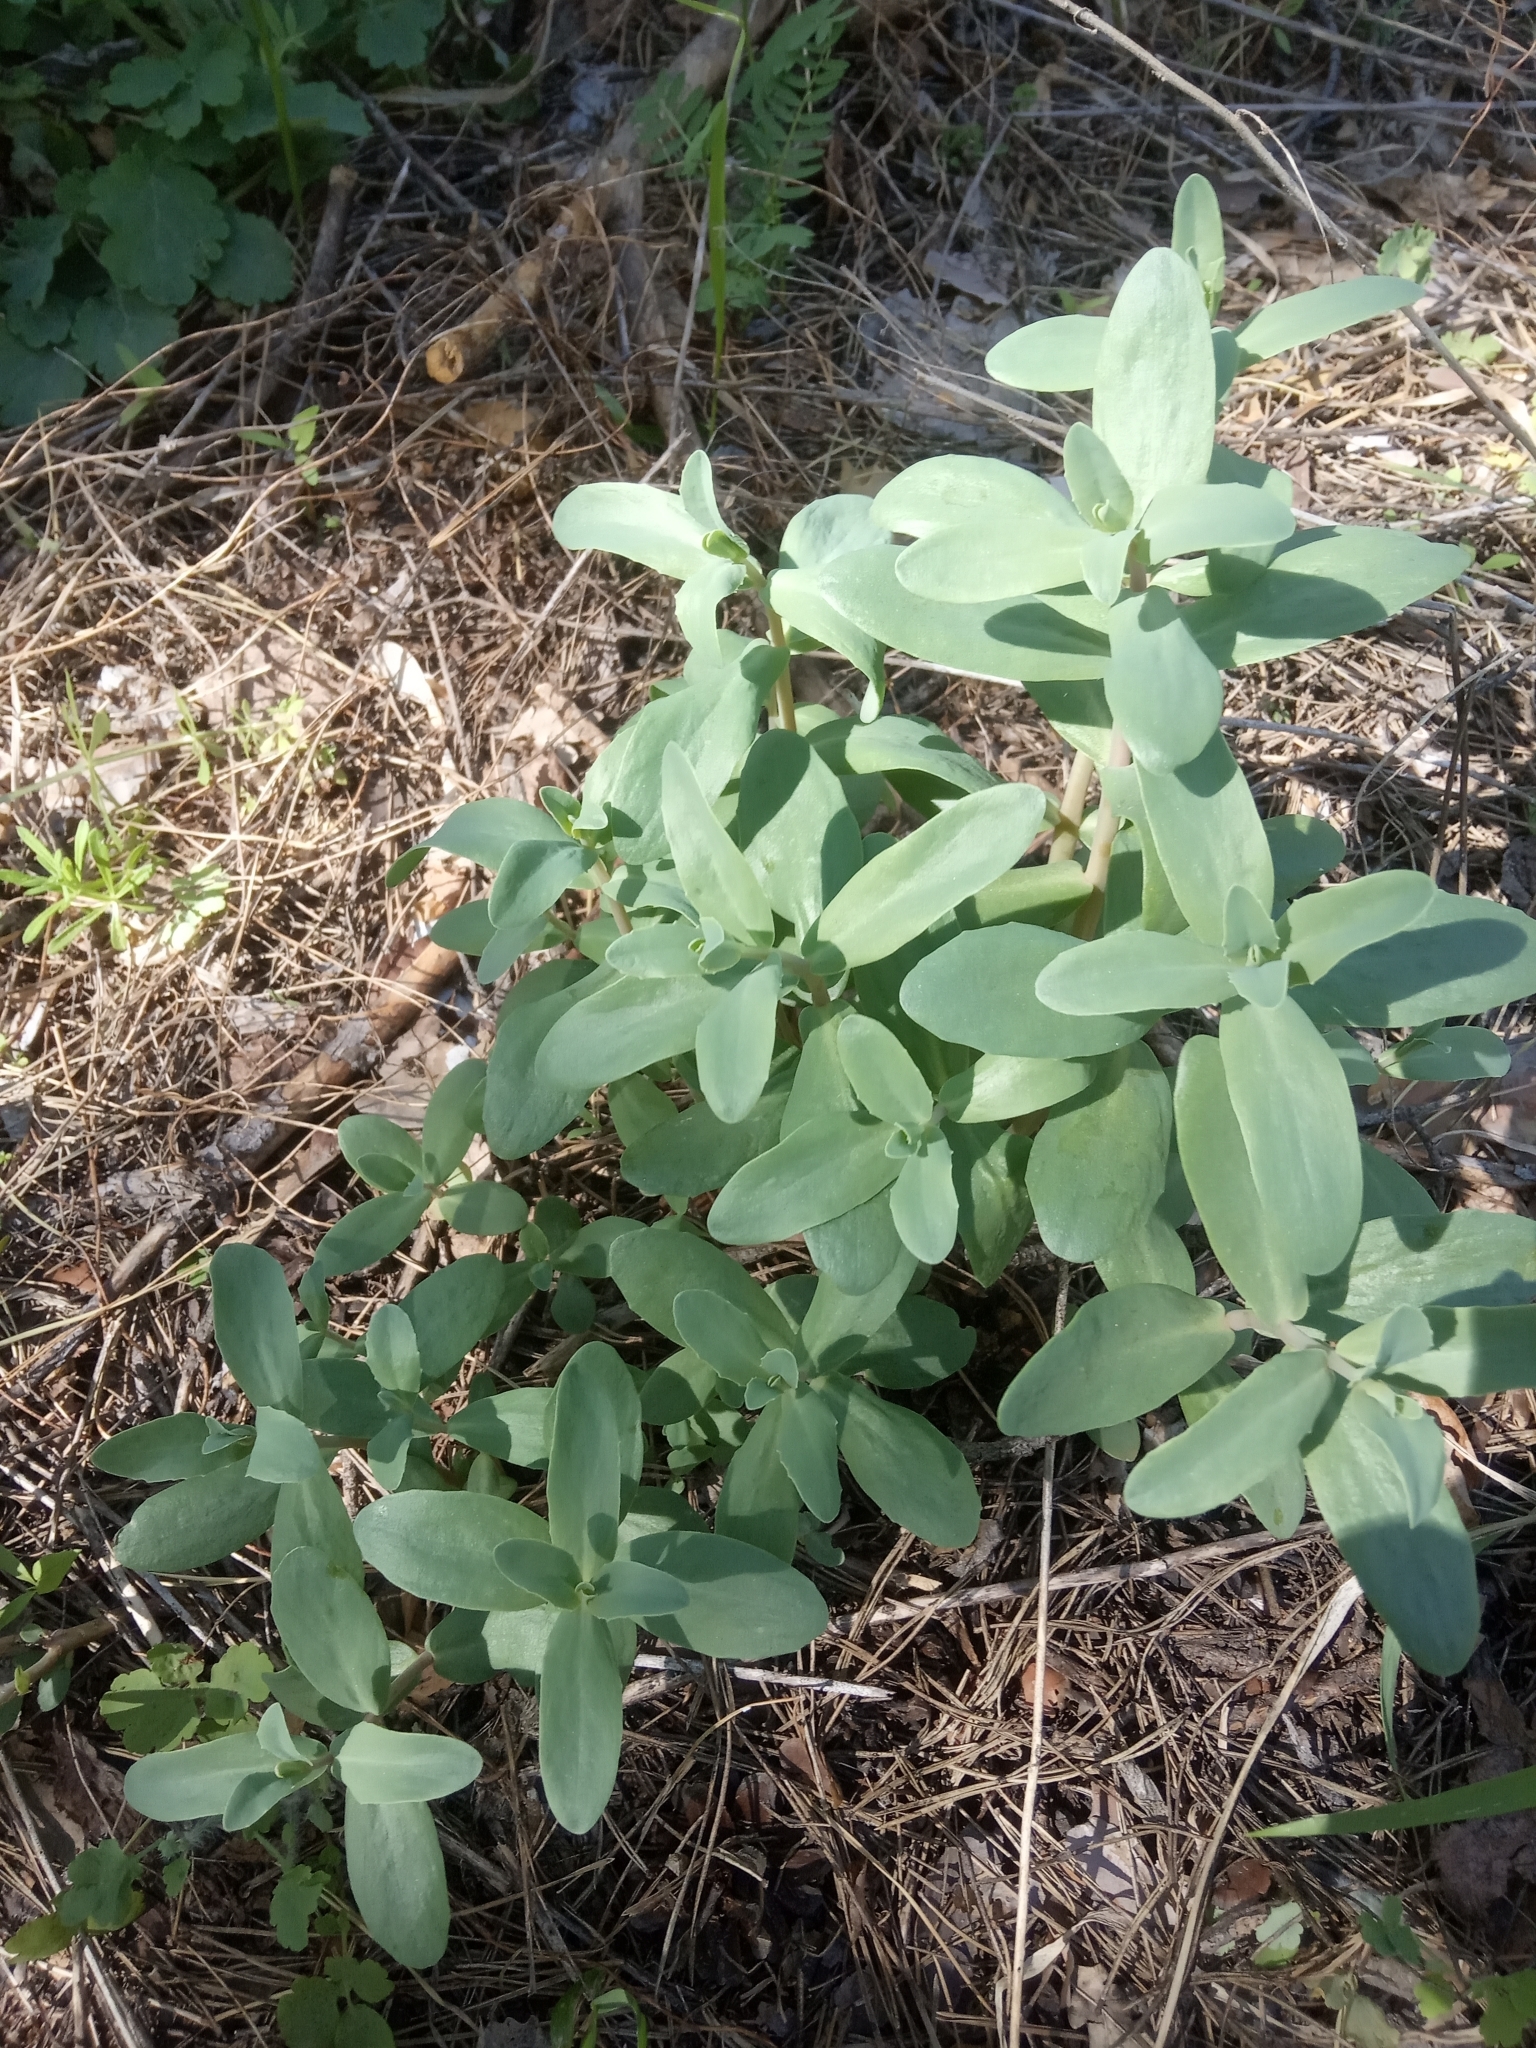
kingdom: Plantae
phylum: Tracheophyta
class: Magnoliopsida
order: Saxifragales
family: Crassulaceae
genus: Hylotelephium
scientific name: Hylotelephium maximum
